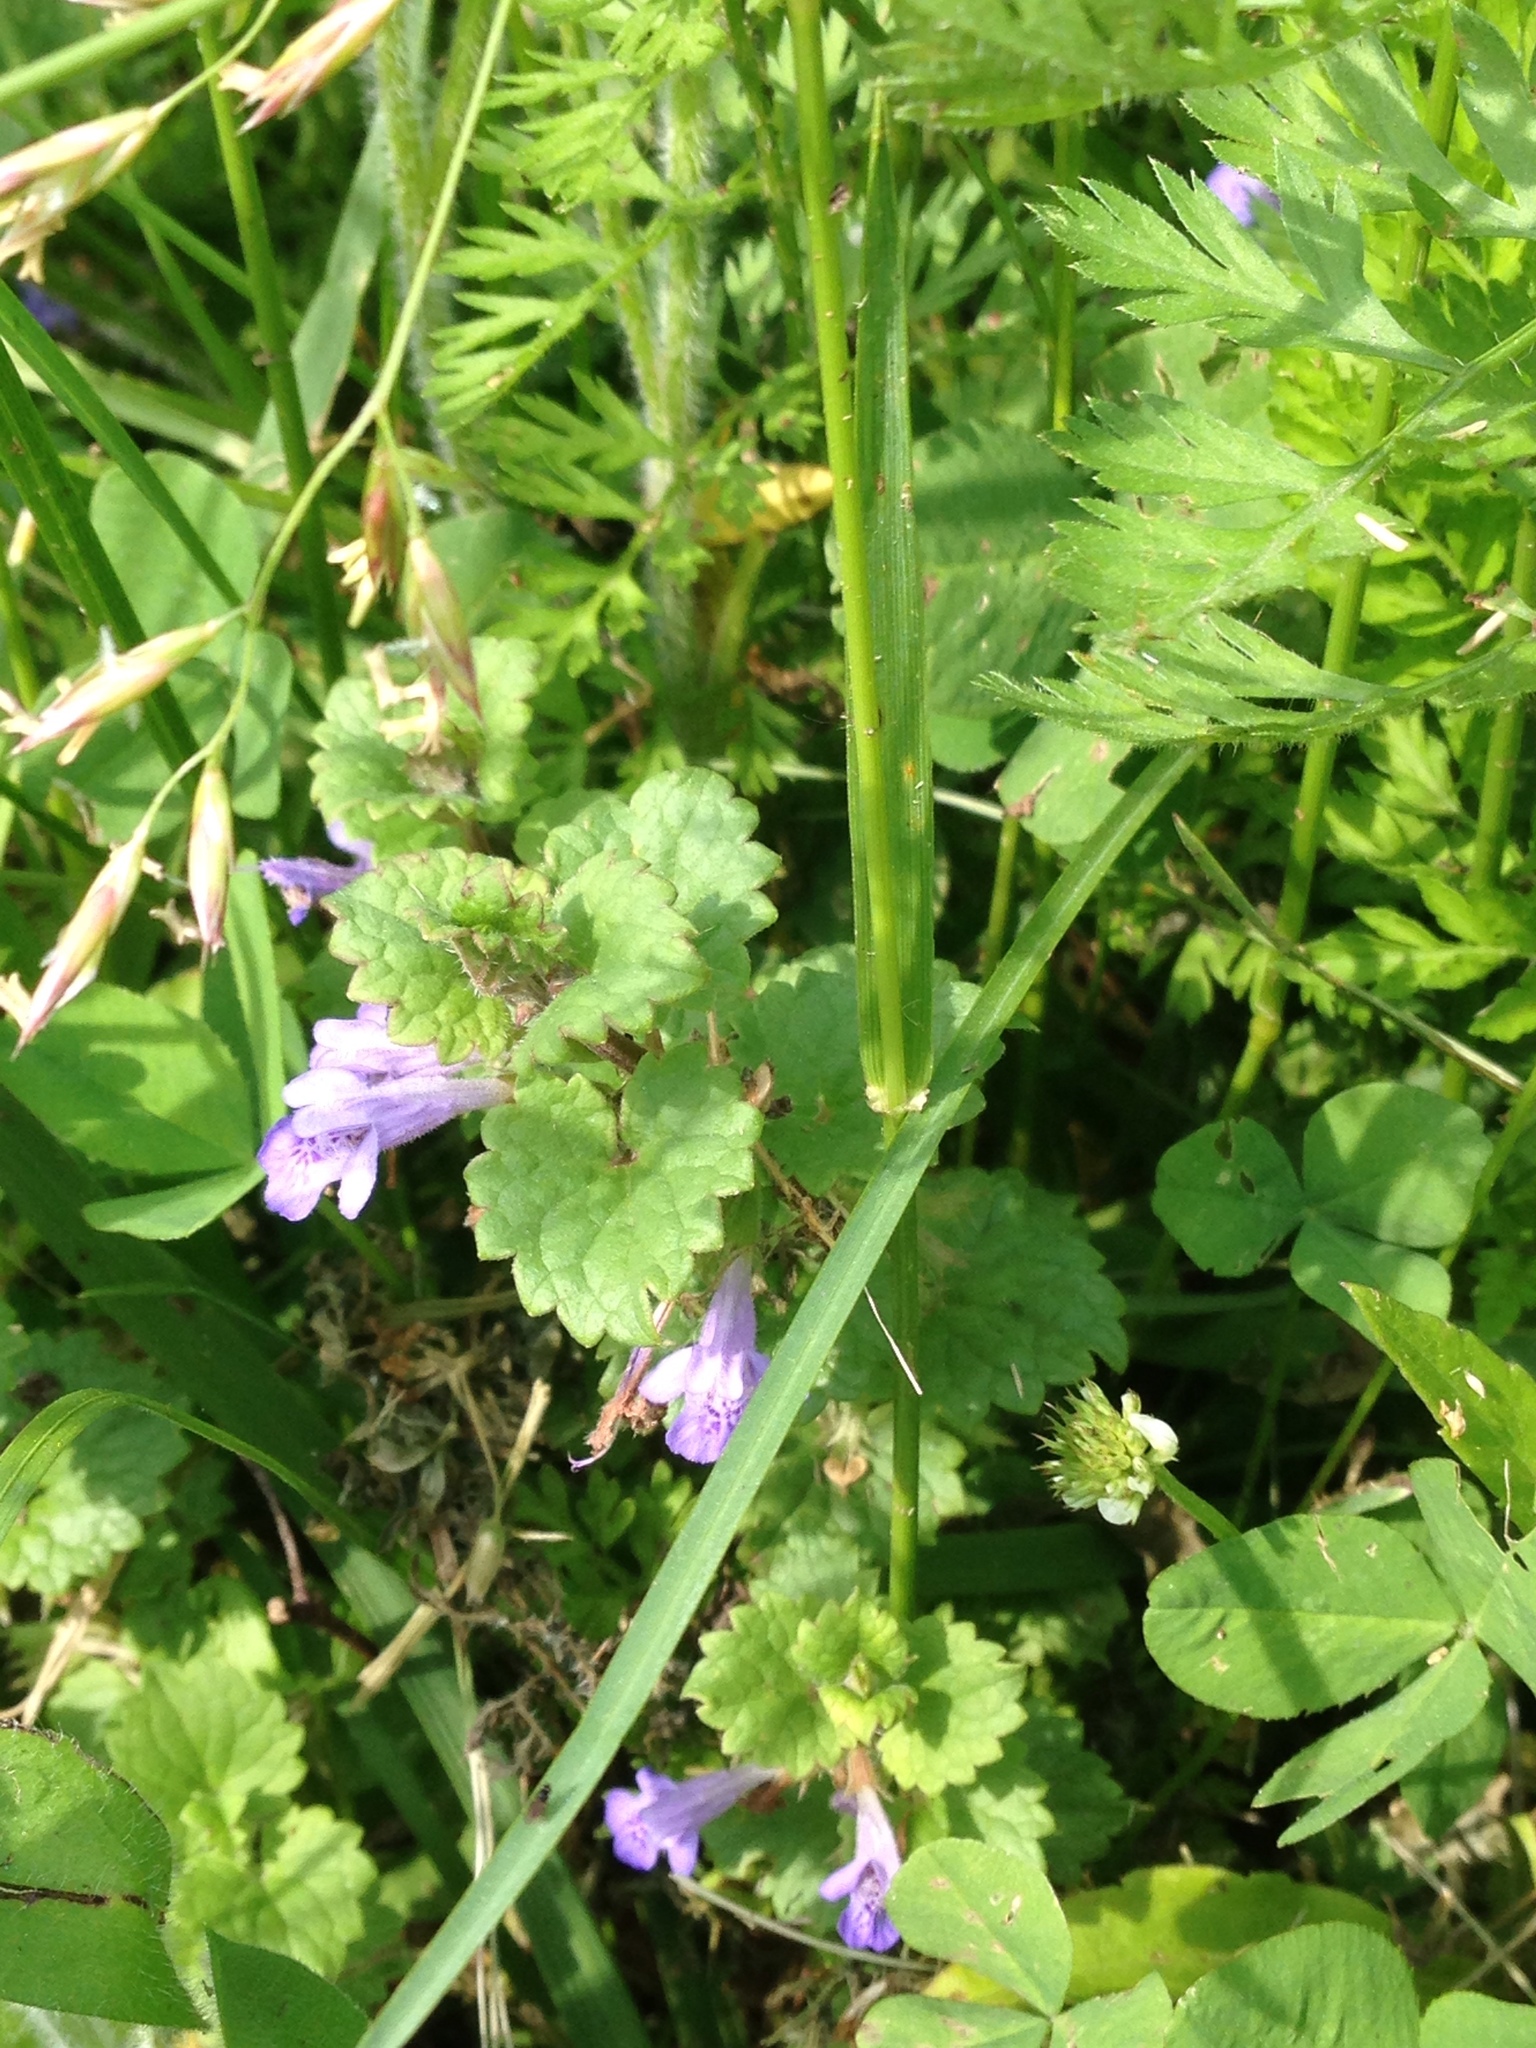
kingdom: Plantae
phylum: Tracheophyta
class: Magnoliopsida
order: Lamiales
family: Lamiaceae
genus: Glechoma
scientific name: Glechoma hederacea
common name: Ground ivy
